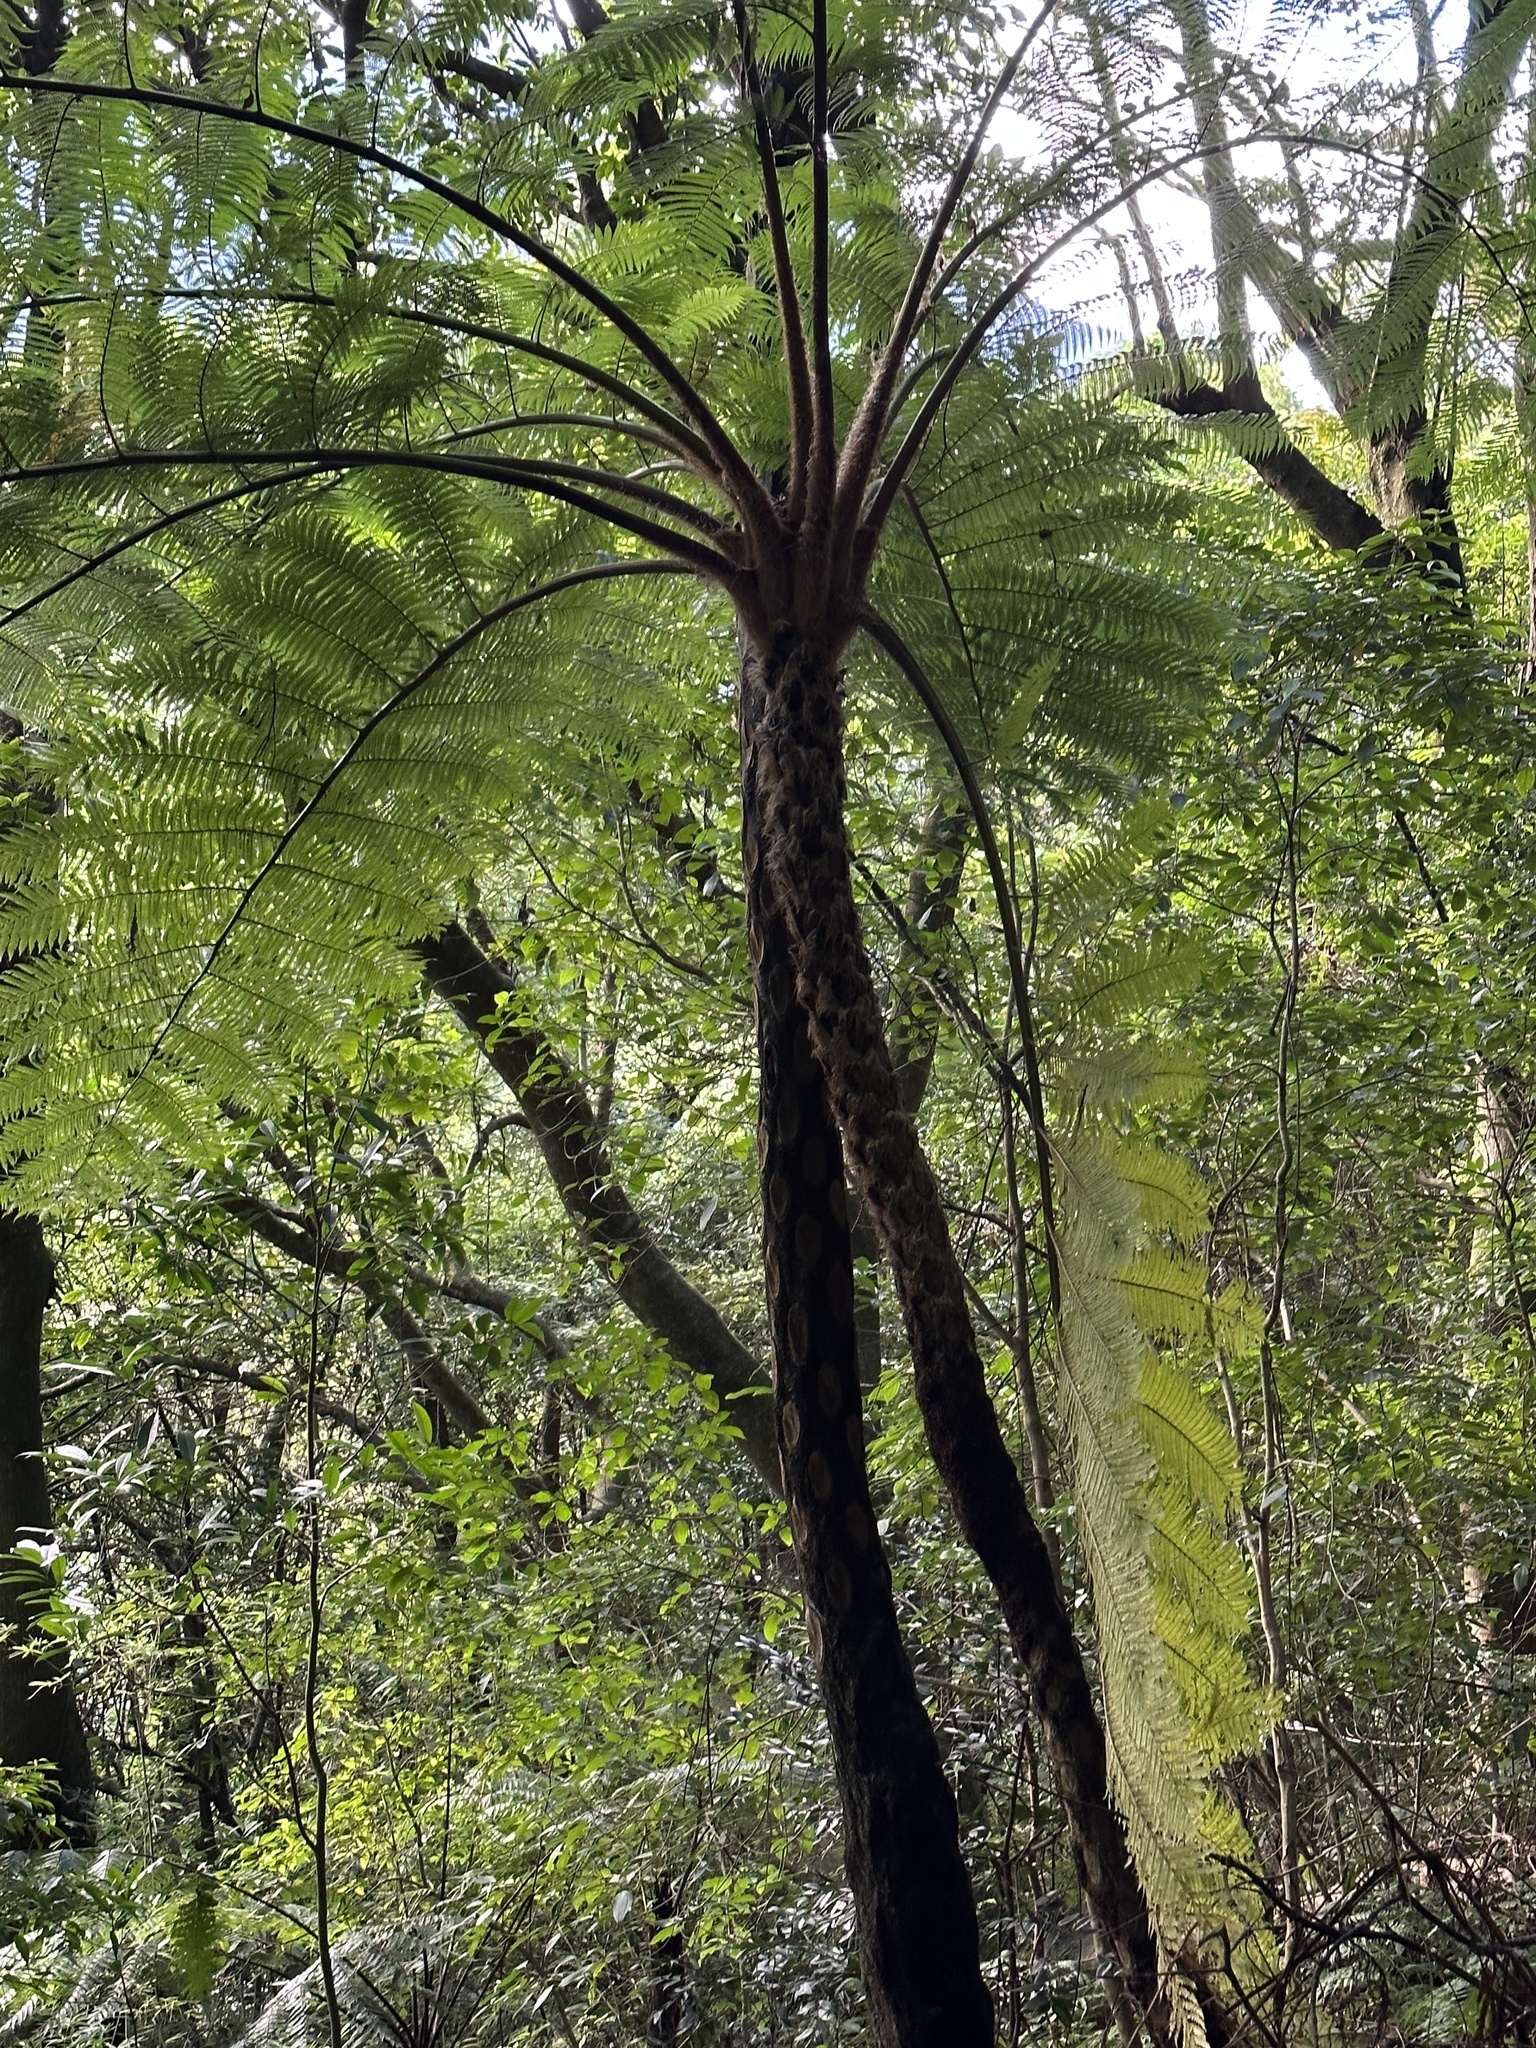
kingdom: Plantae
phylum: Tracheophyta
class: Polypodiopsida
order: Cyatheales
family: Cyatheaceae
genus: Alsophila
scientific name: Alsophila lepifera
